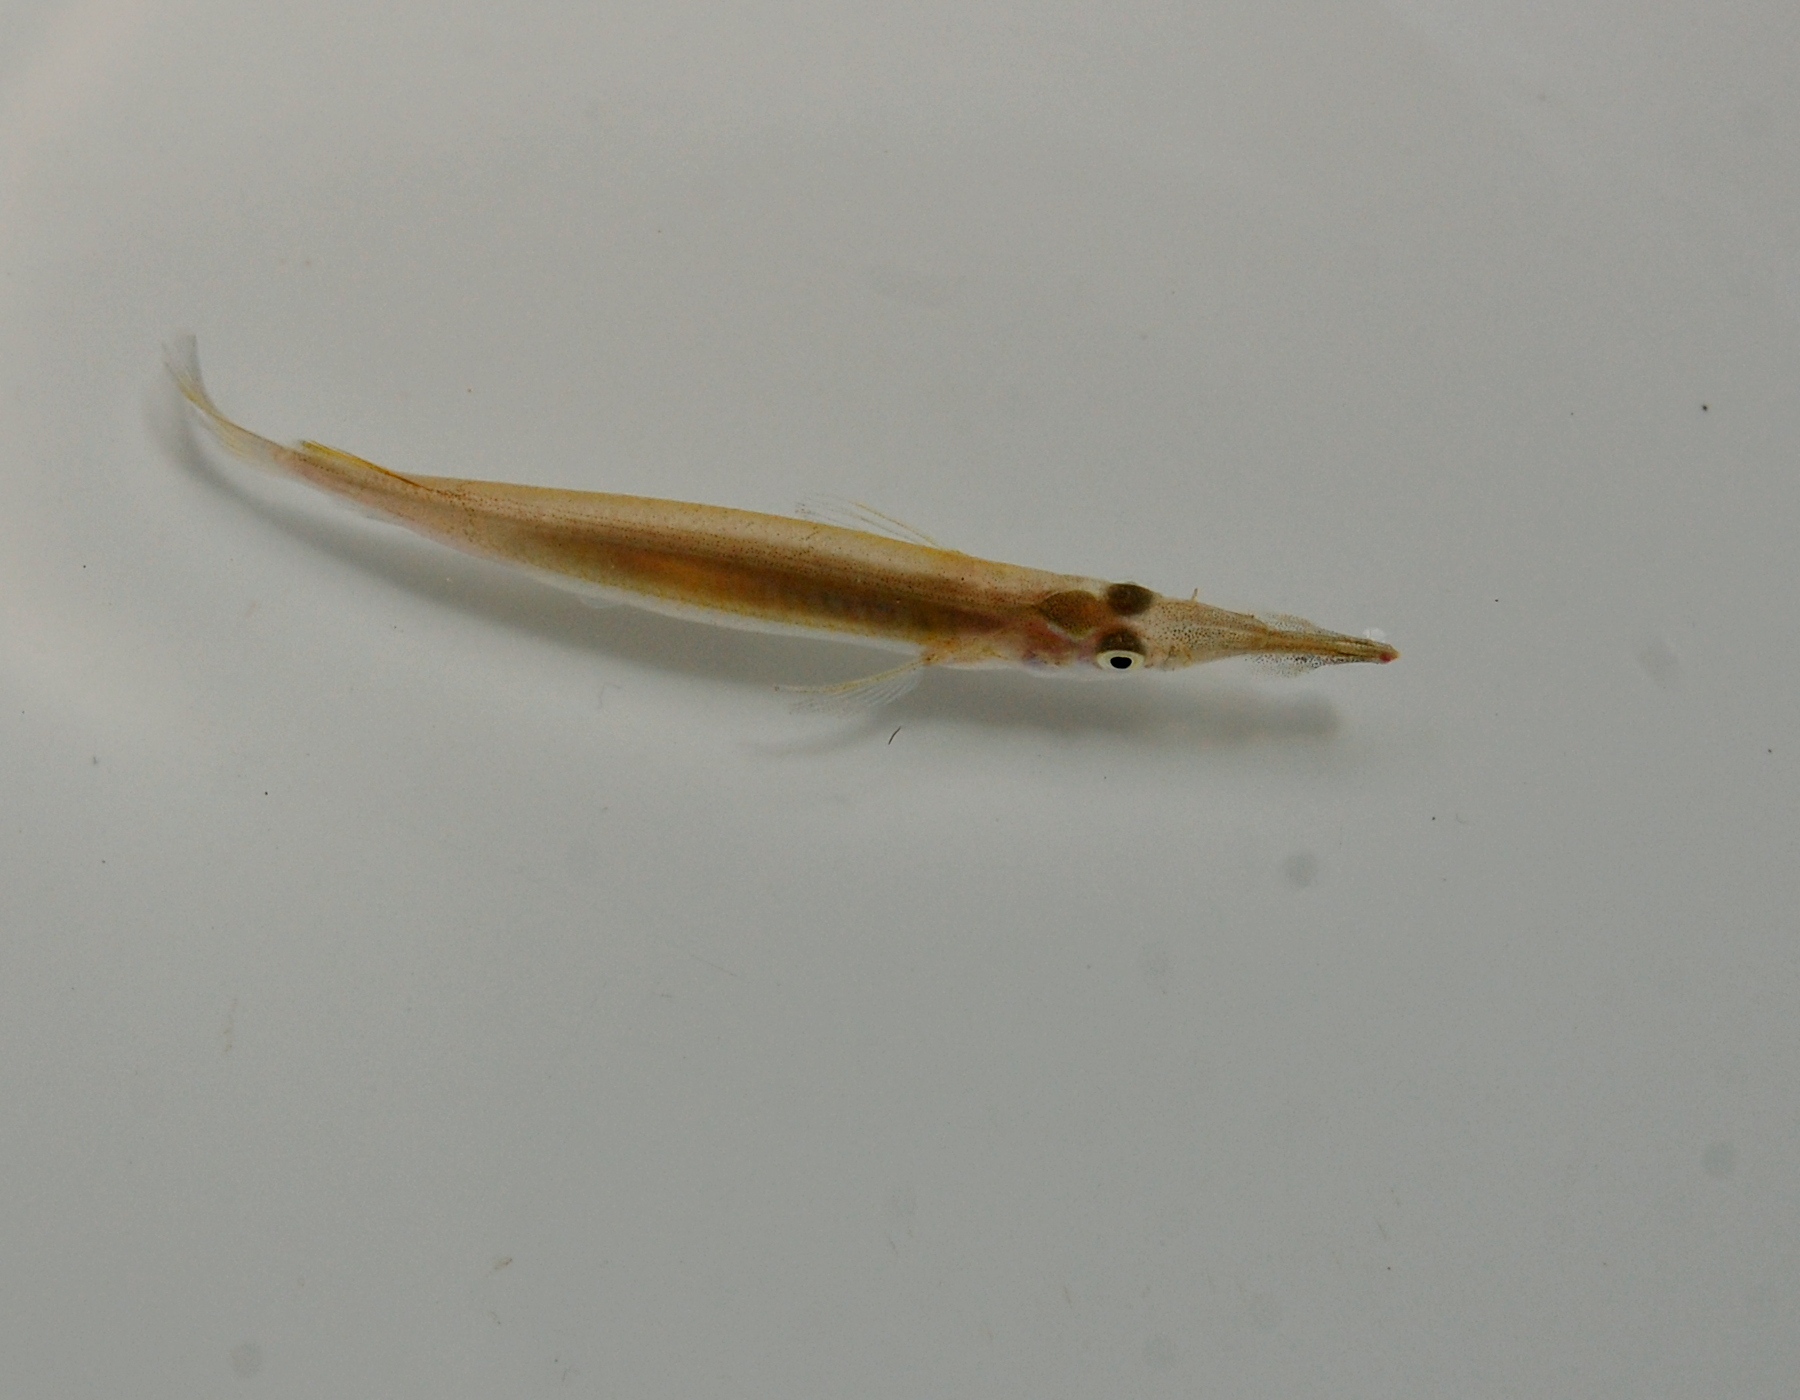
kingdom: Animalia
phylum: Chordata
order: Beloniformes
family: Zenarchopteridae
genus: Dermogenys
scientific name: Dermogenys pusilla
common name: Halfbeak
